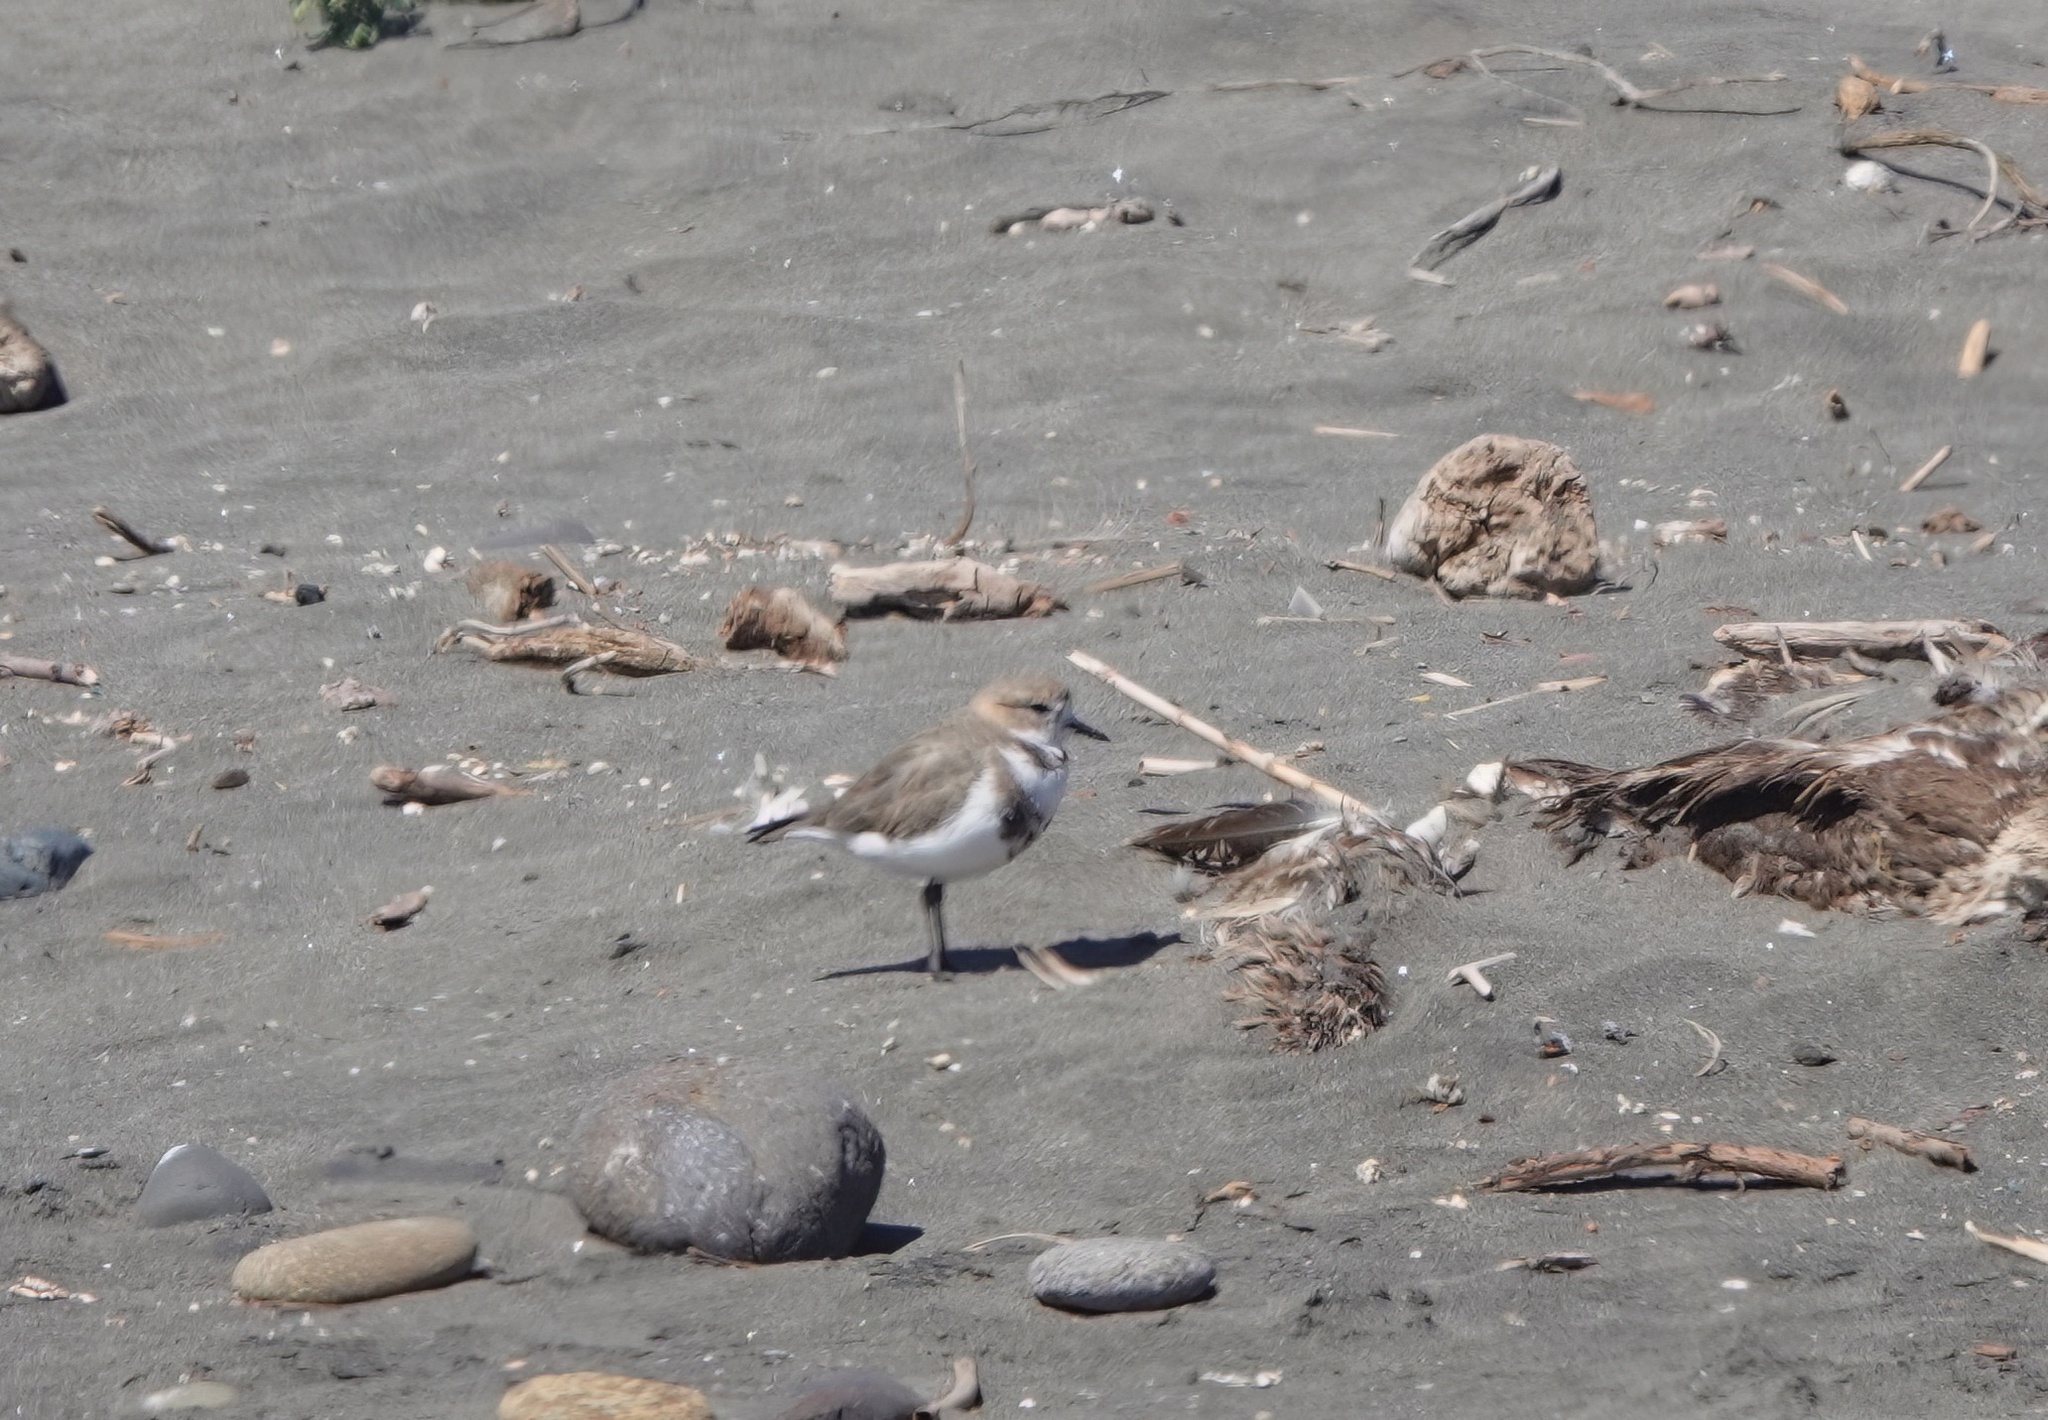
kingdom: Animalia
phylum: Chordata
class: Aves
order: Charadriiformes
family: Charadriidae
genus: Anarhynchus
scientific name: Anarhynchus
